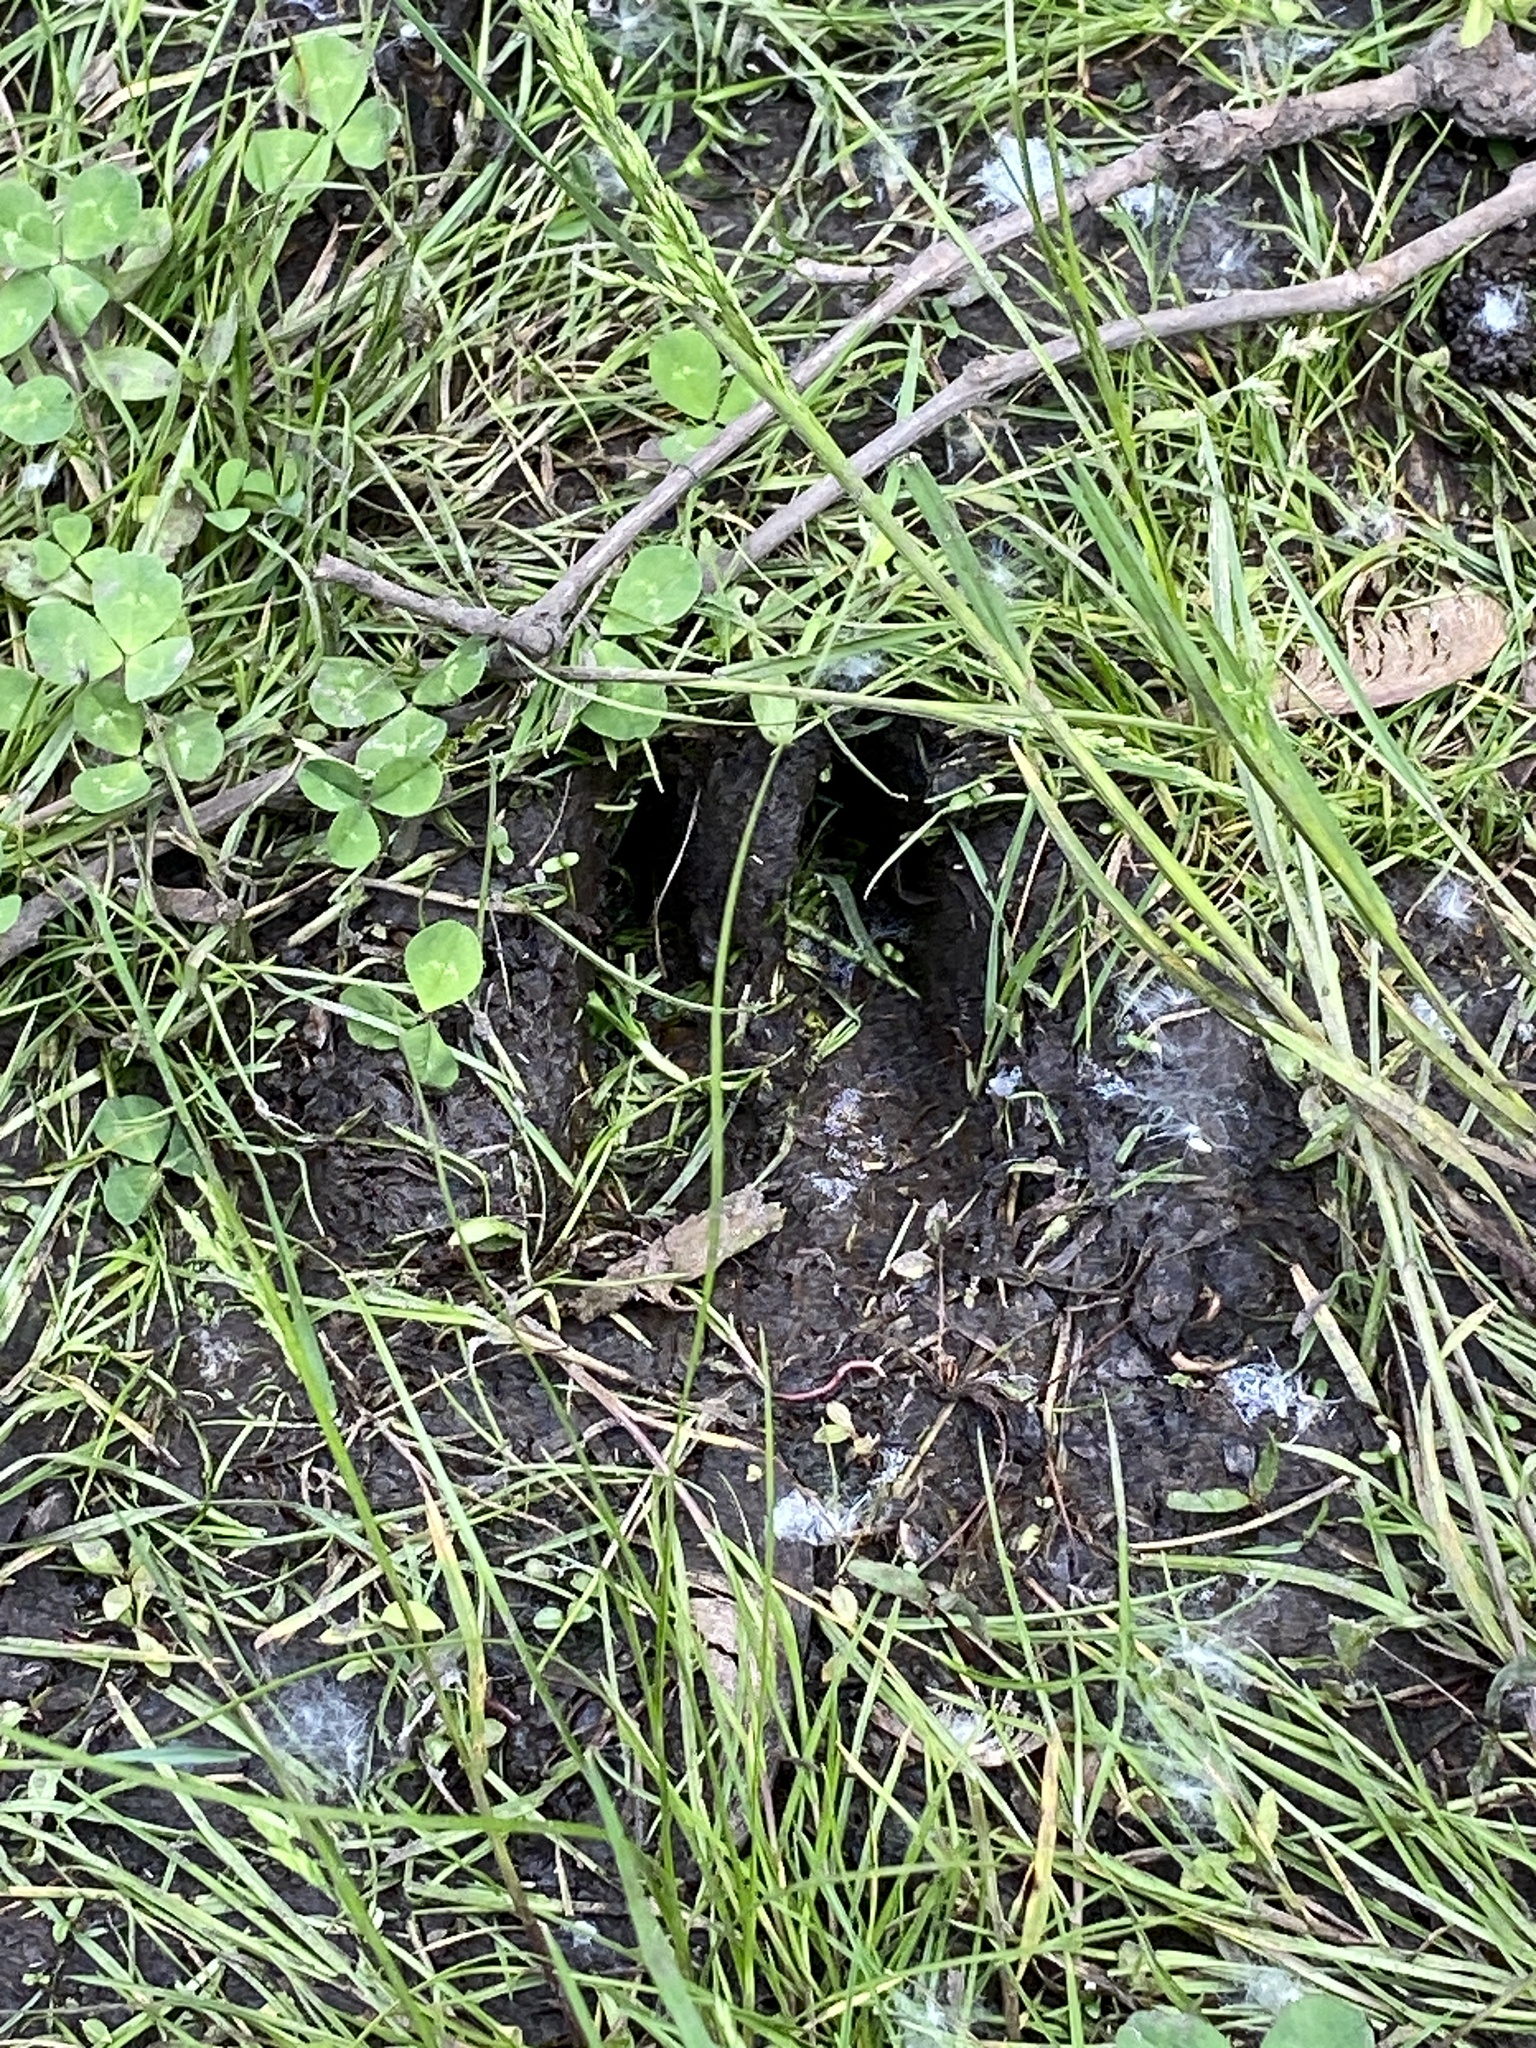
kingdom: Animalia
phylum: Chordata
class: Mammalia
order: Artiodactyla
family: Cervidae
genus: Odocoileus
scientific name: Odocoileus virginianus
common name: White-tailed deer
